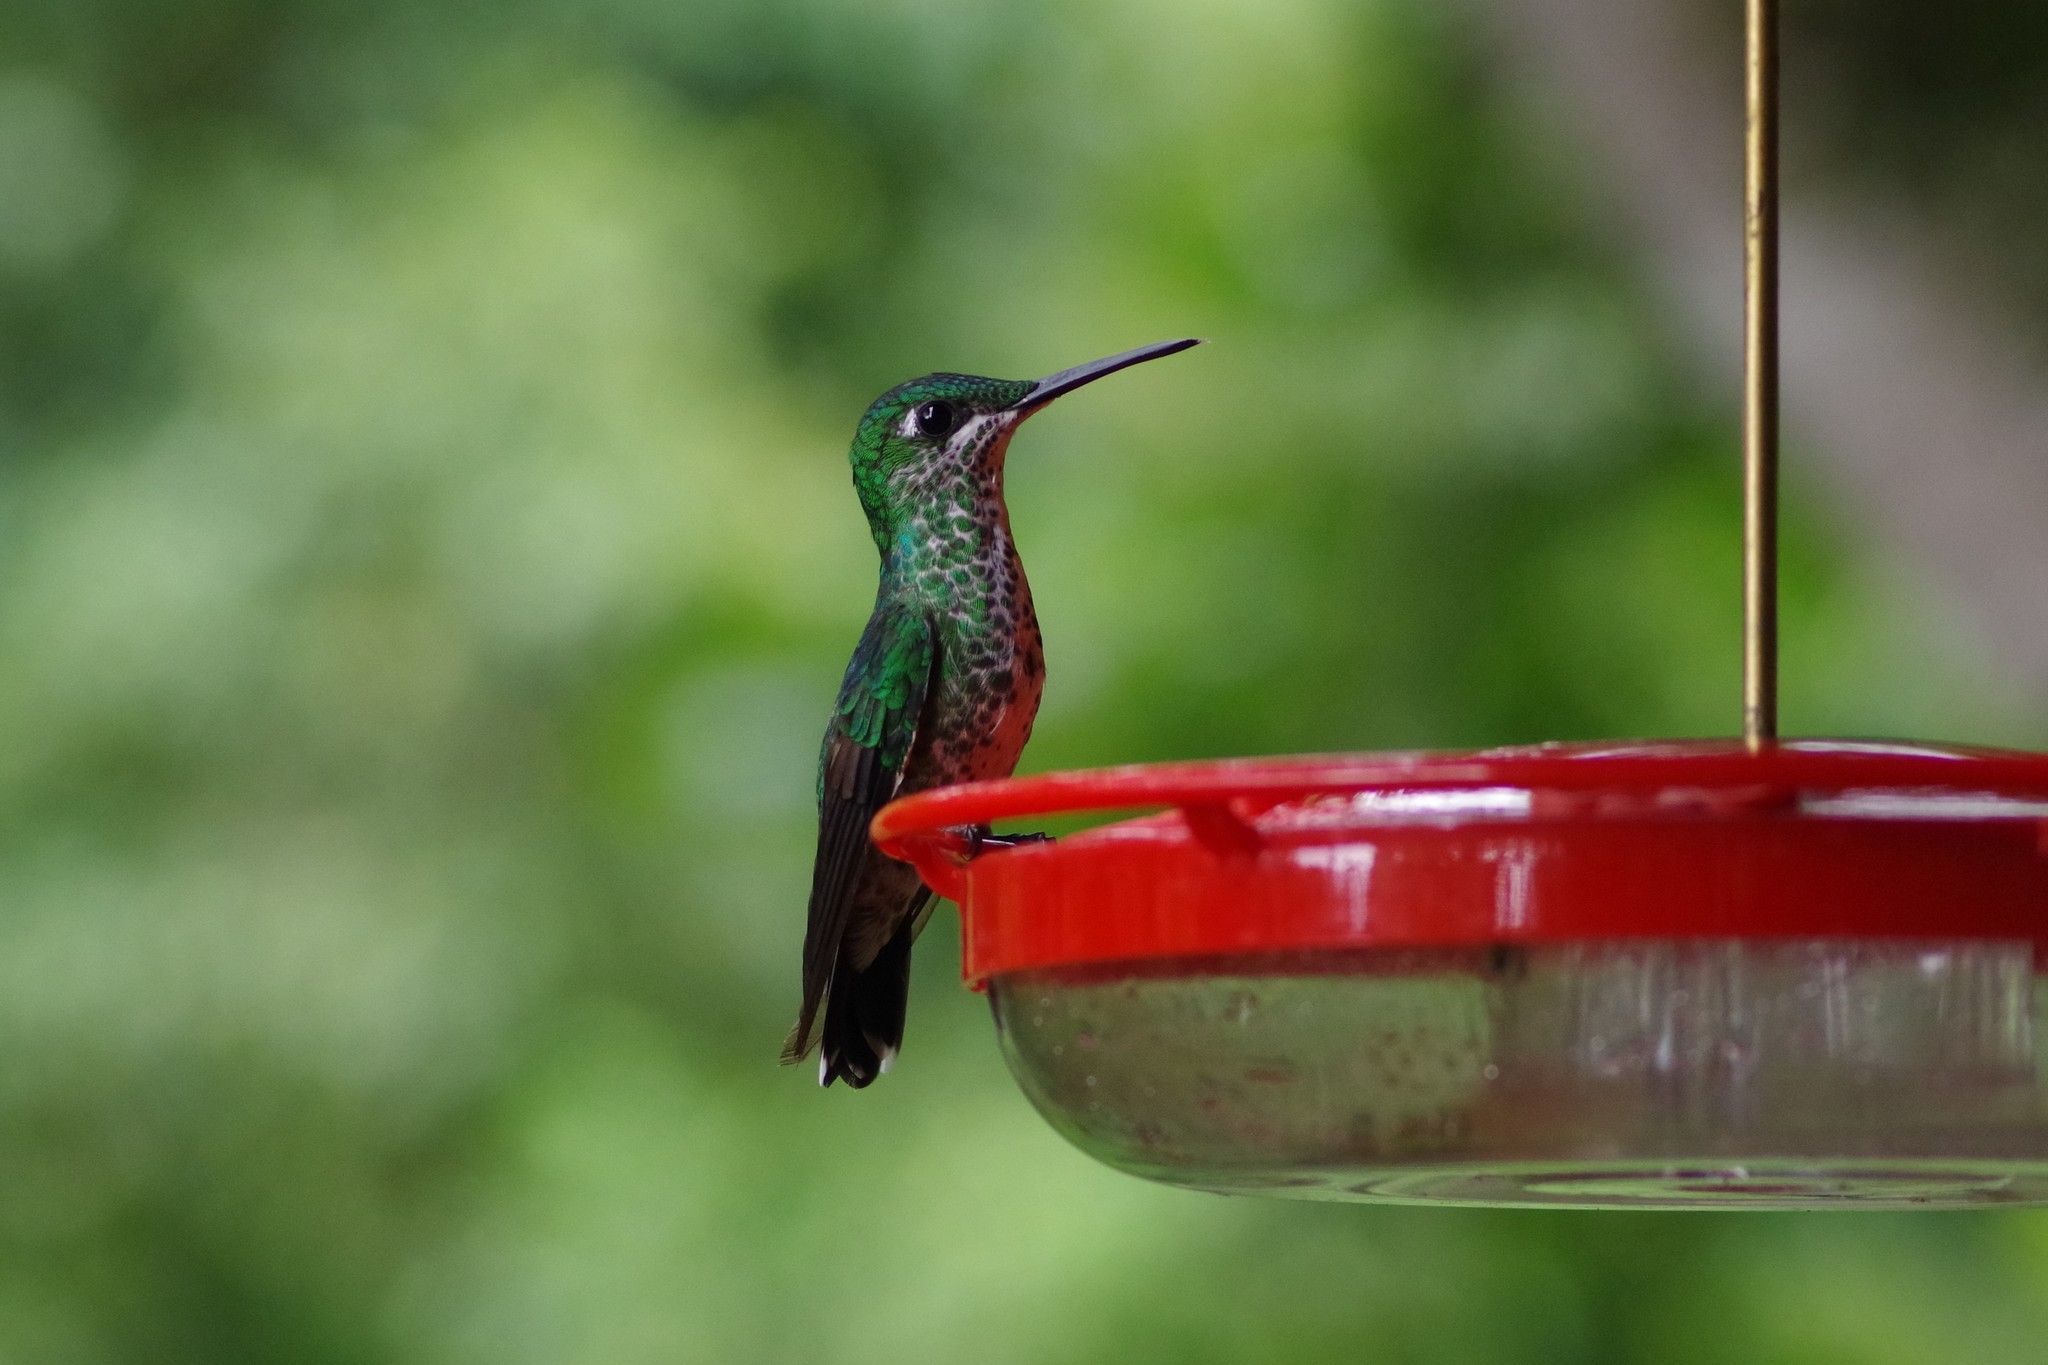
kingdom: Animalia
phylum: Chordata
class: Aves
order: Apodiformes
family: Trochilidae
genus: Heliodoxa
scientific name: Heliodoxa jacula
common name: Green-crowned brilliant
